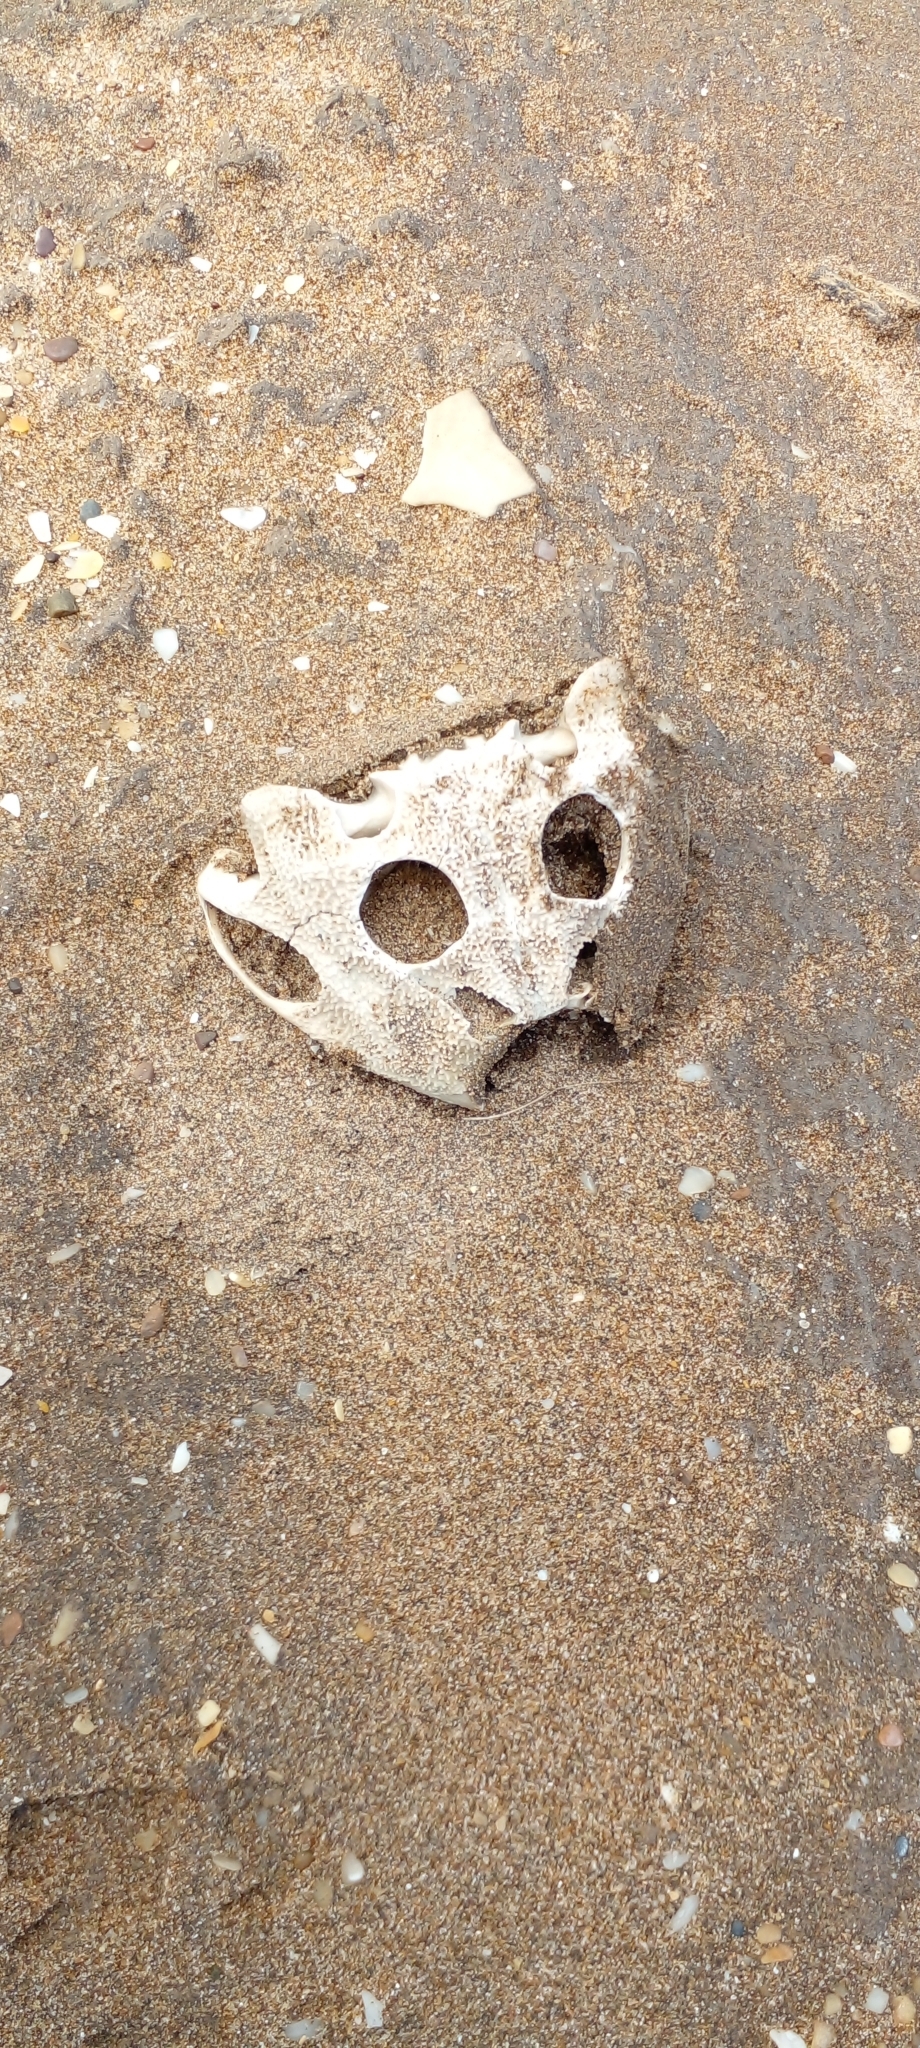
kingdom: Animalia
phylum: Chordata
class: Amphibia
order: Anura
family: Ceratophryidae
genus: Ceratophrys
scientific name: Ceratophrys ornata
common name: Argentinean horned frog
